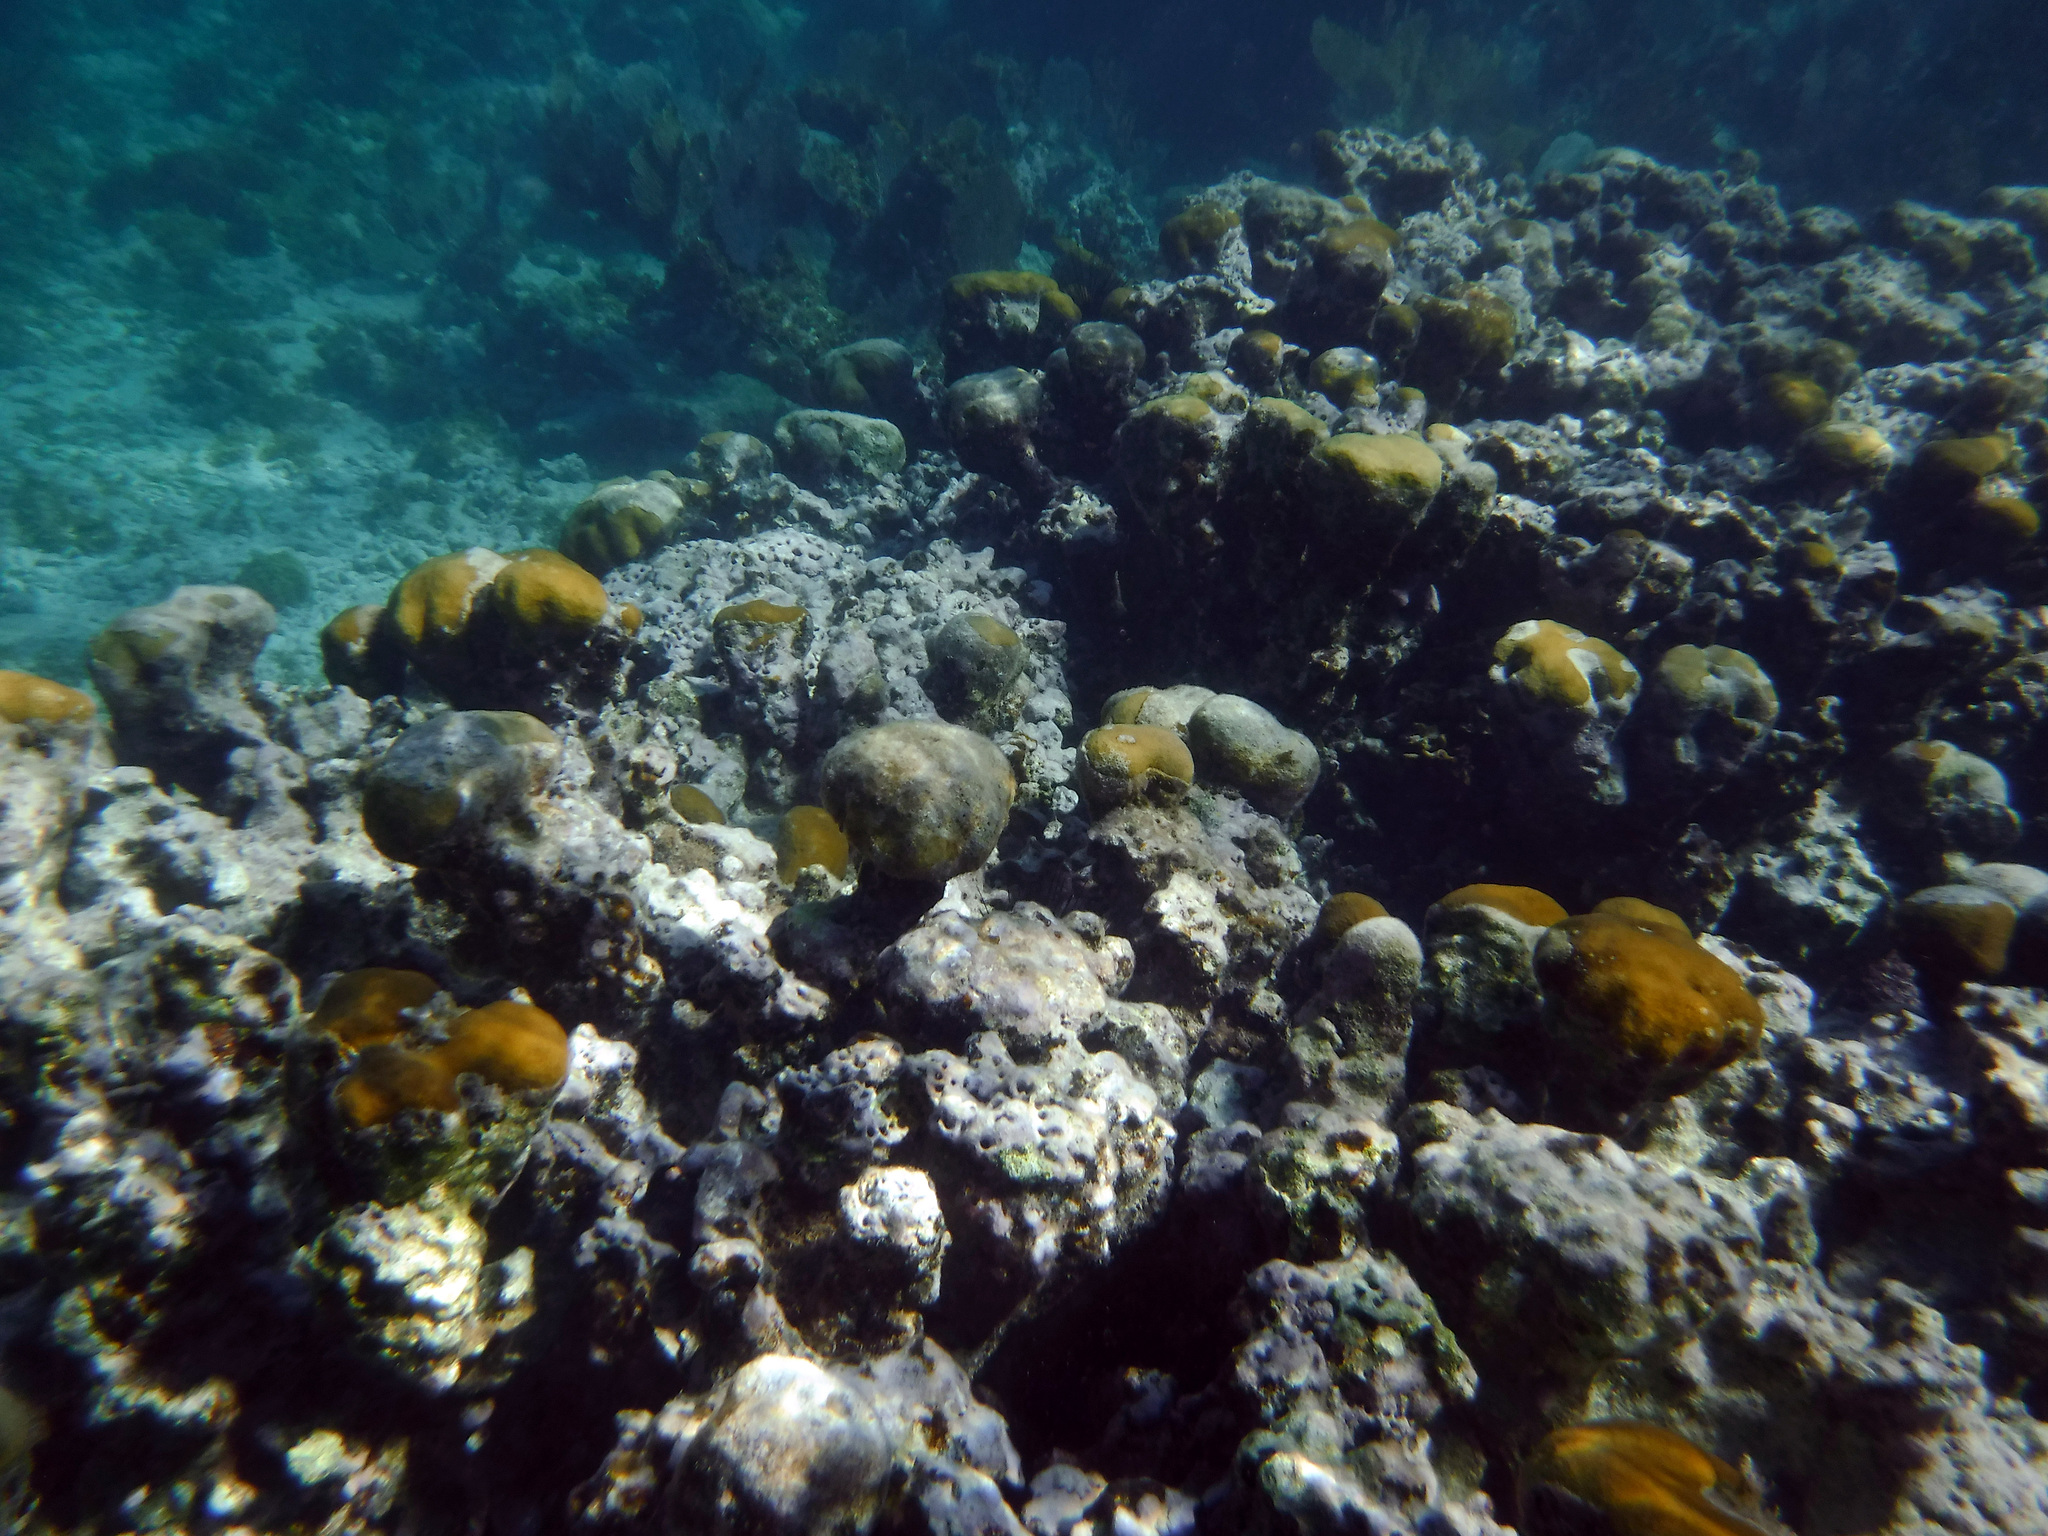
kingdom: Animalia
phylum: Cnidaria
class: Anthozoa
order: Scleractinia
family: Merulinidae
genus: Orbicella
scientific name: Orbicella annularis
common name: Boulder star coral
